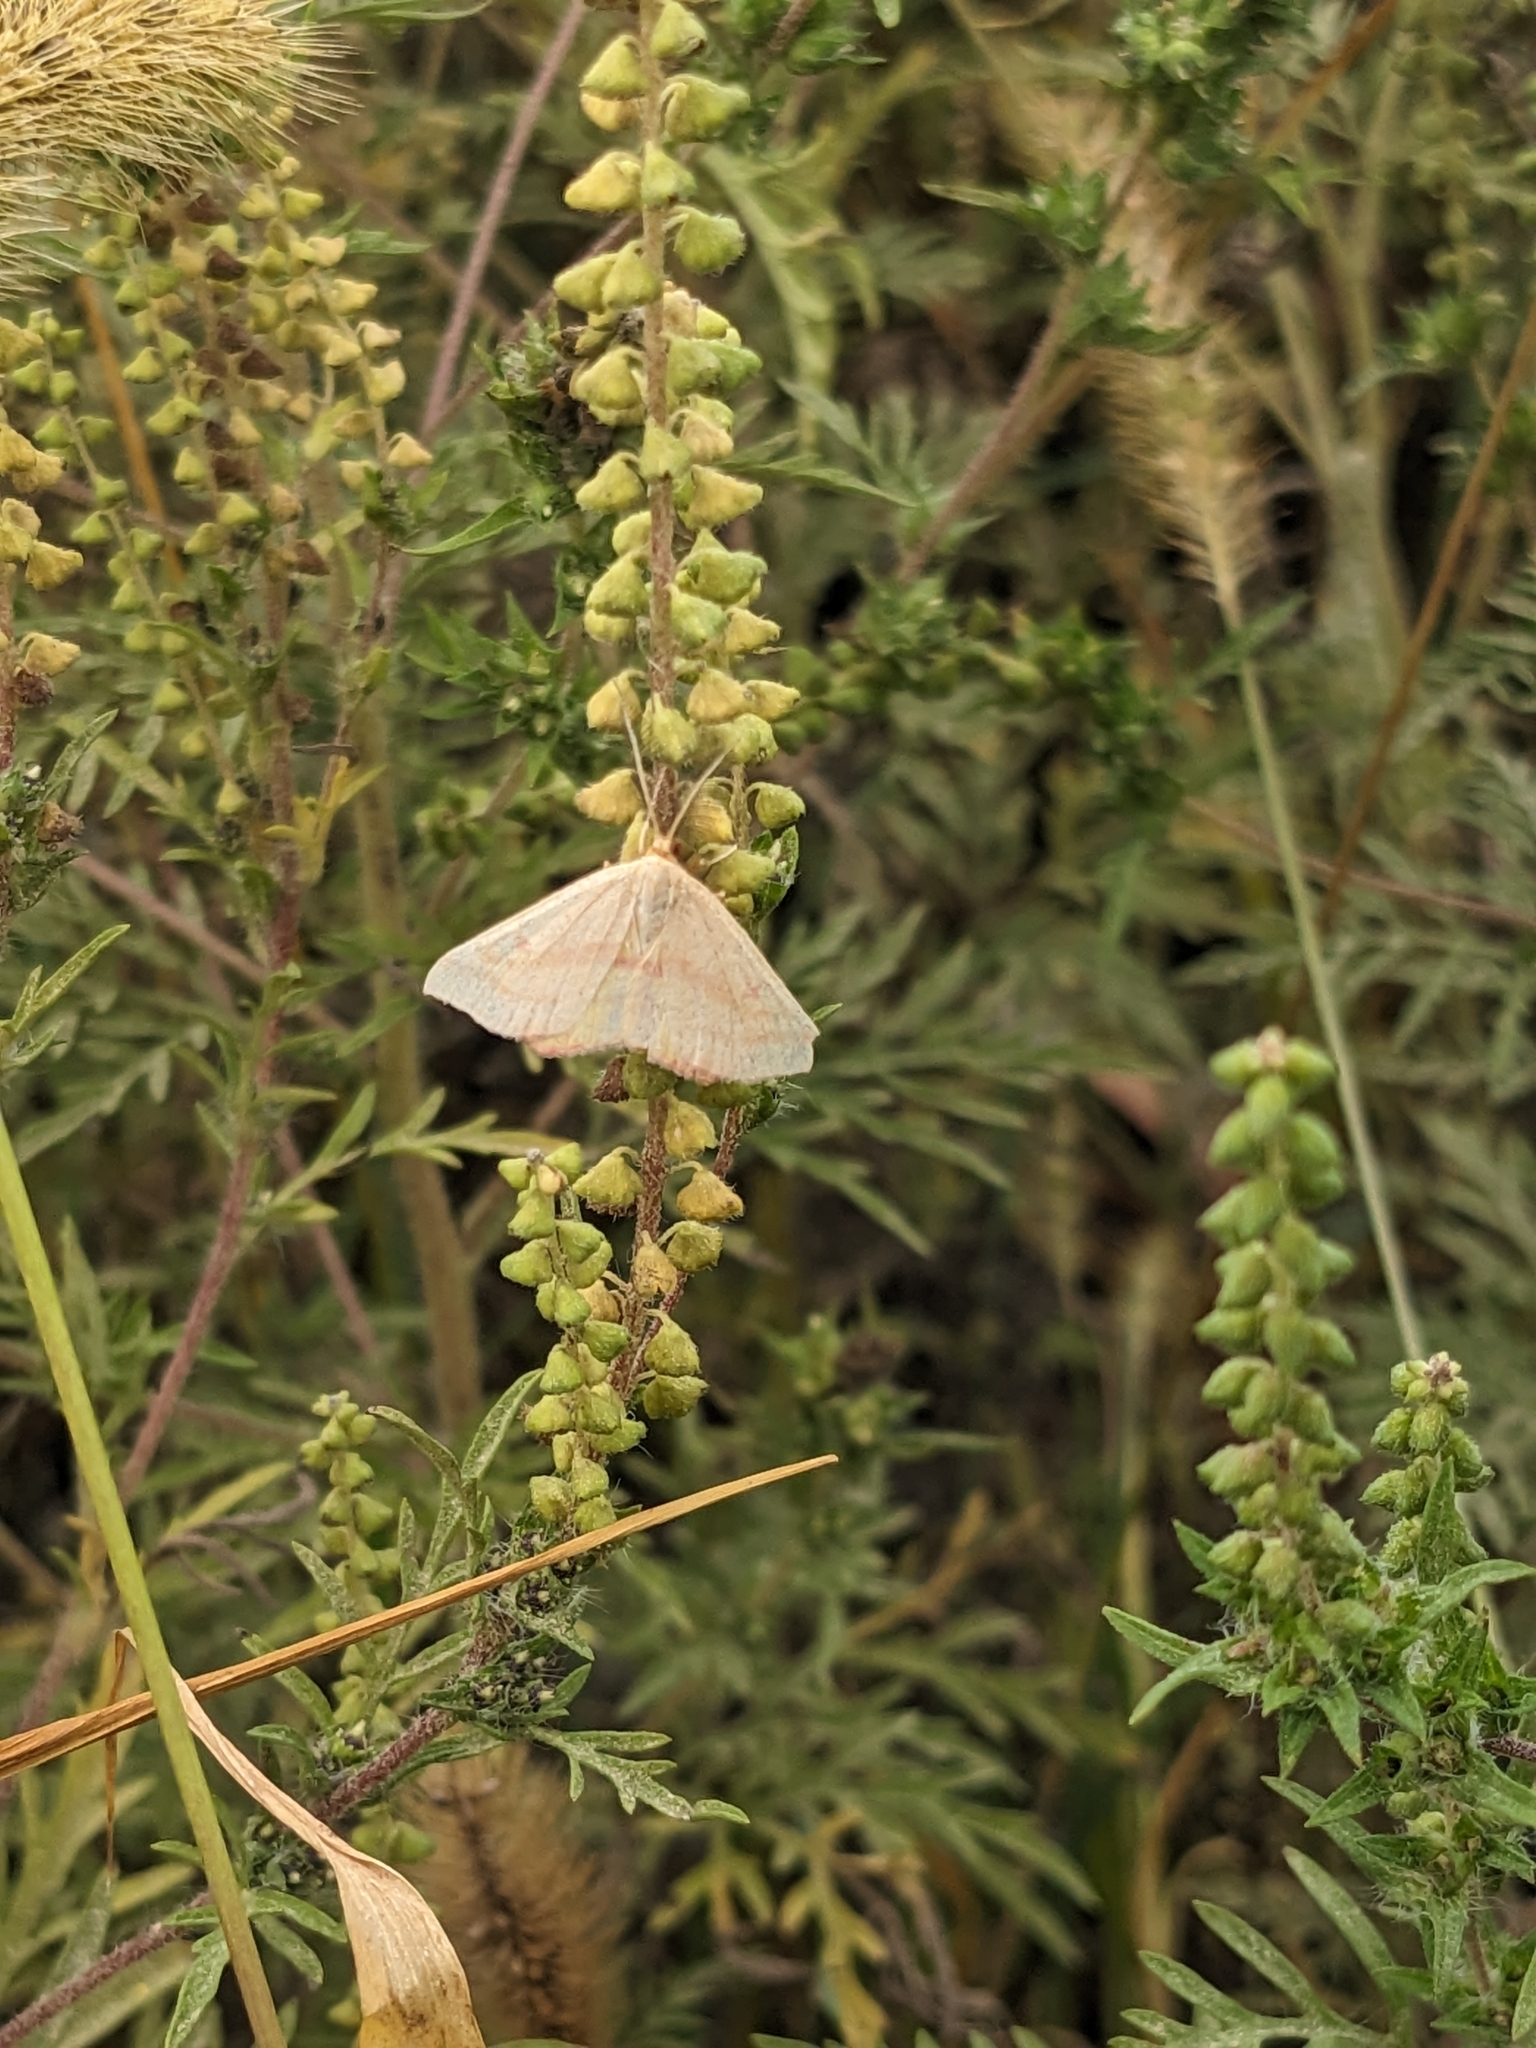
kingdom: Animalia
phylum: Arthropoda
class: Insecta
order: Lepidoptera
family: Geometridae
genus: Haematopis
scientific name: Haematopis grataria
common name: Chickweed geometer
